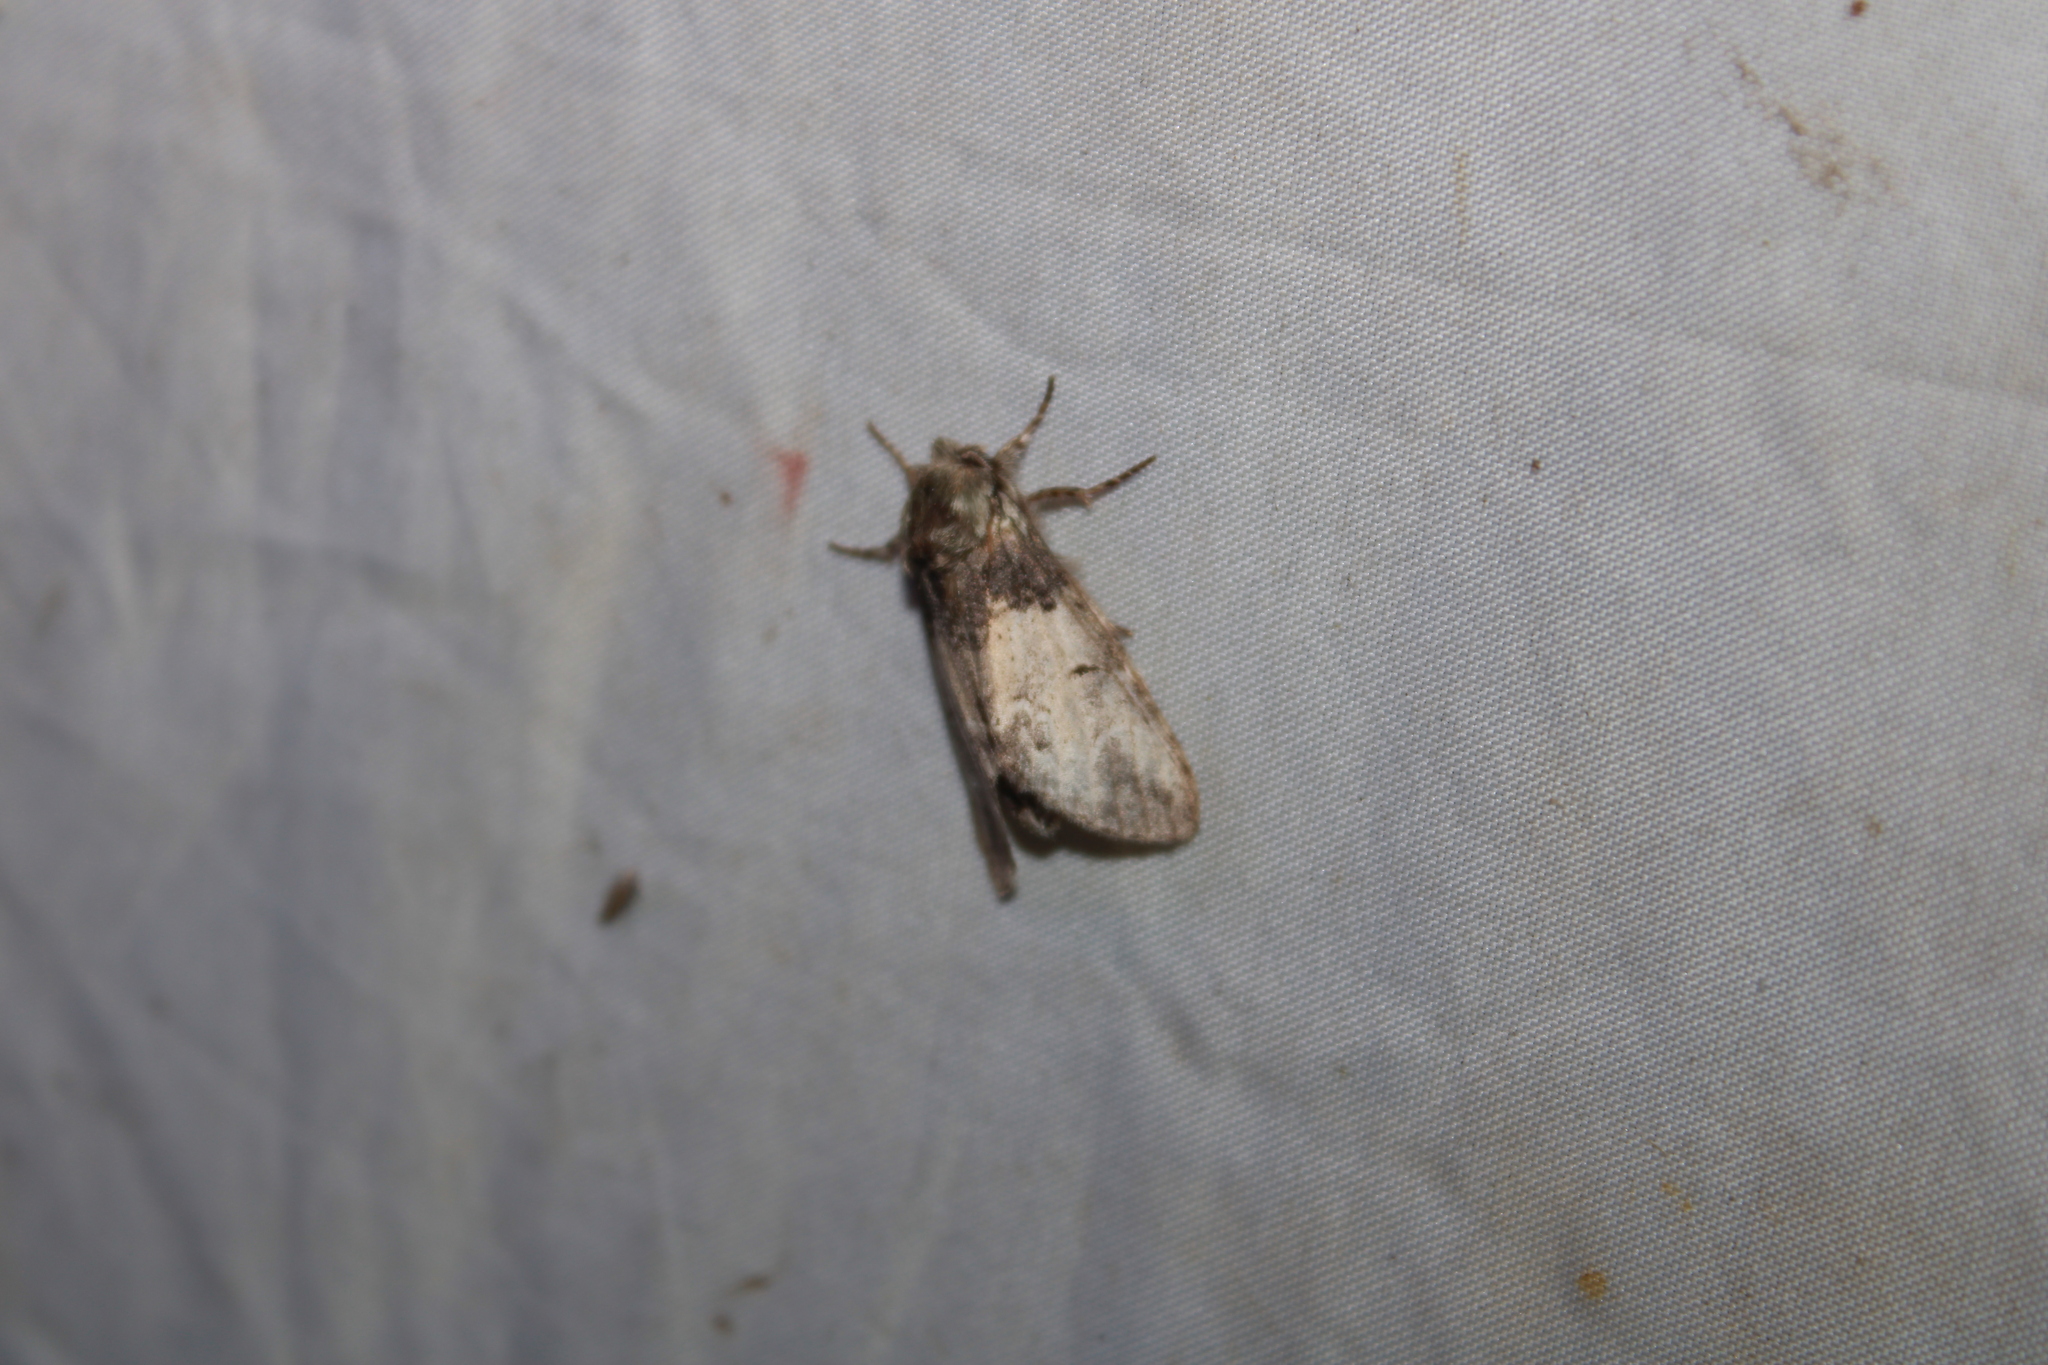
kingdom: Animalia
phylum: Arthropoda
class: Insecta
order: Lepidoptera
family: Notodontidae
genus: Macrurocampa
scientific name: Macrurocampa marthesia
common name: Mottled prominent
